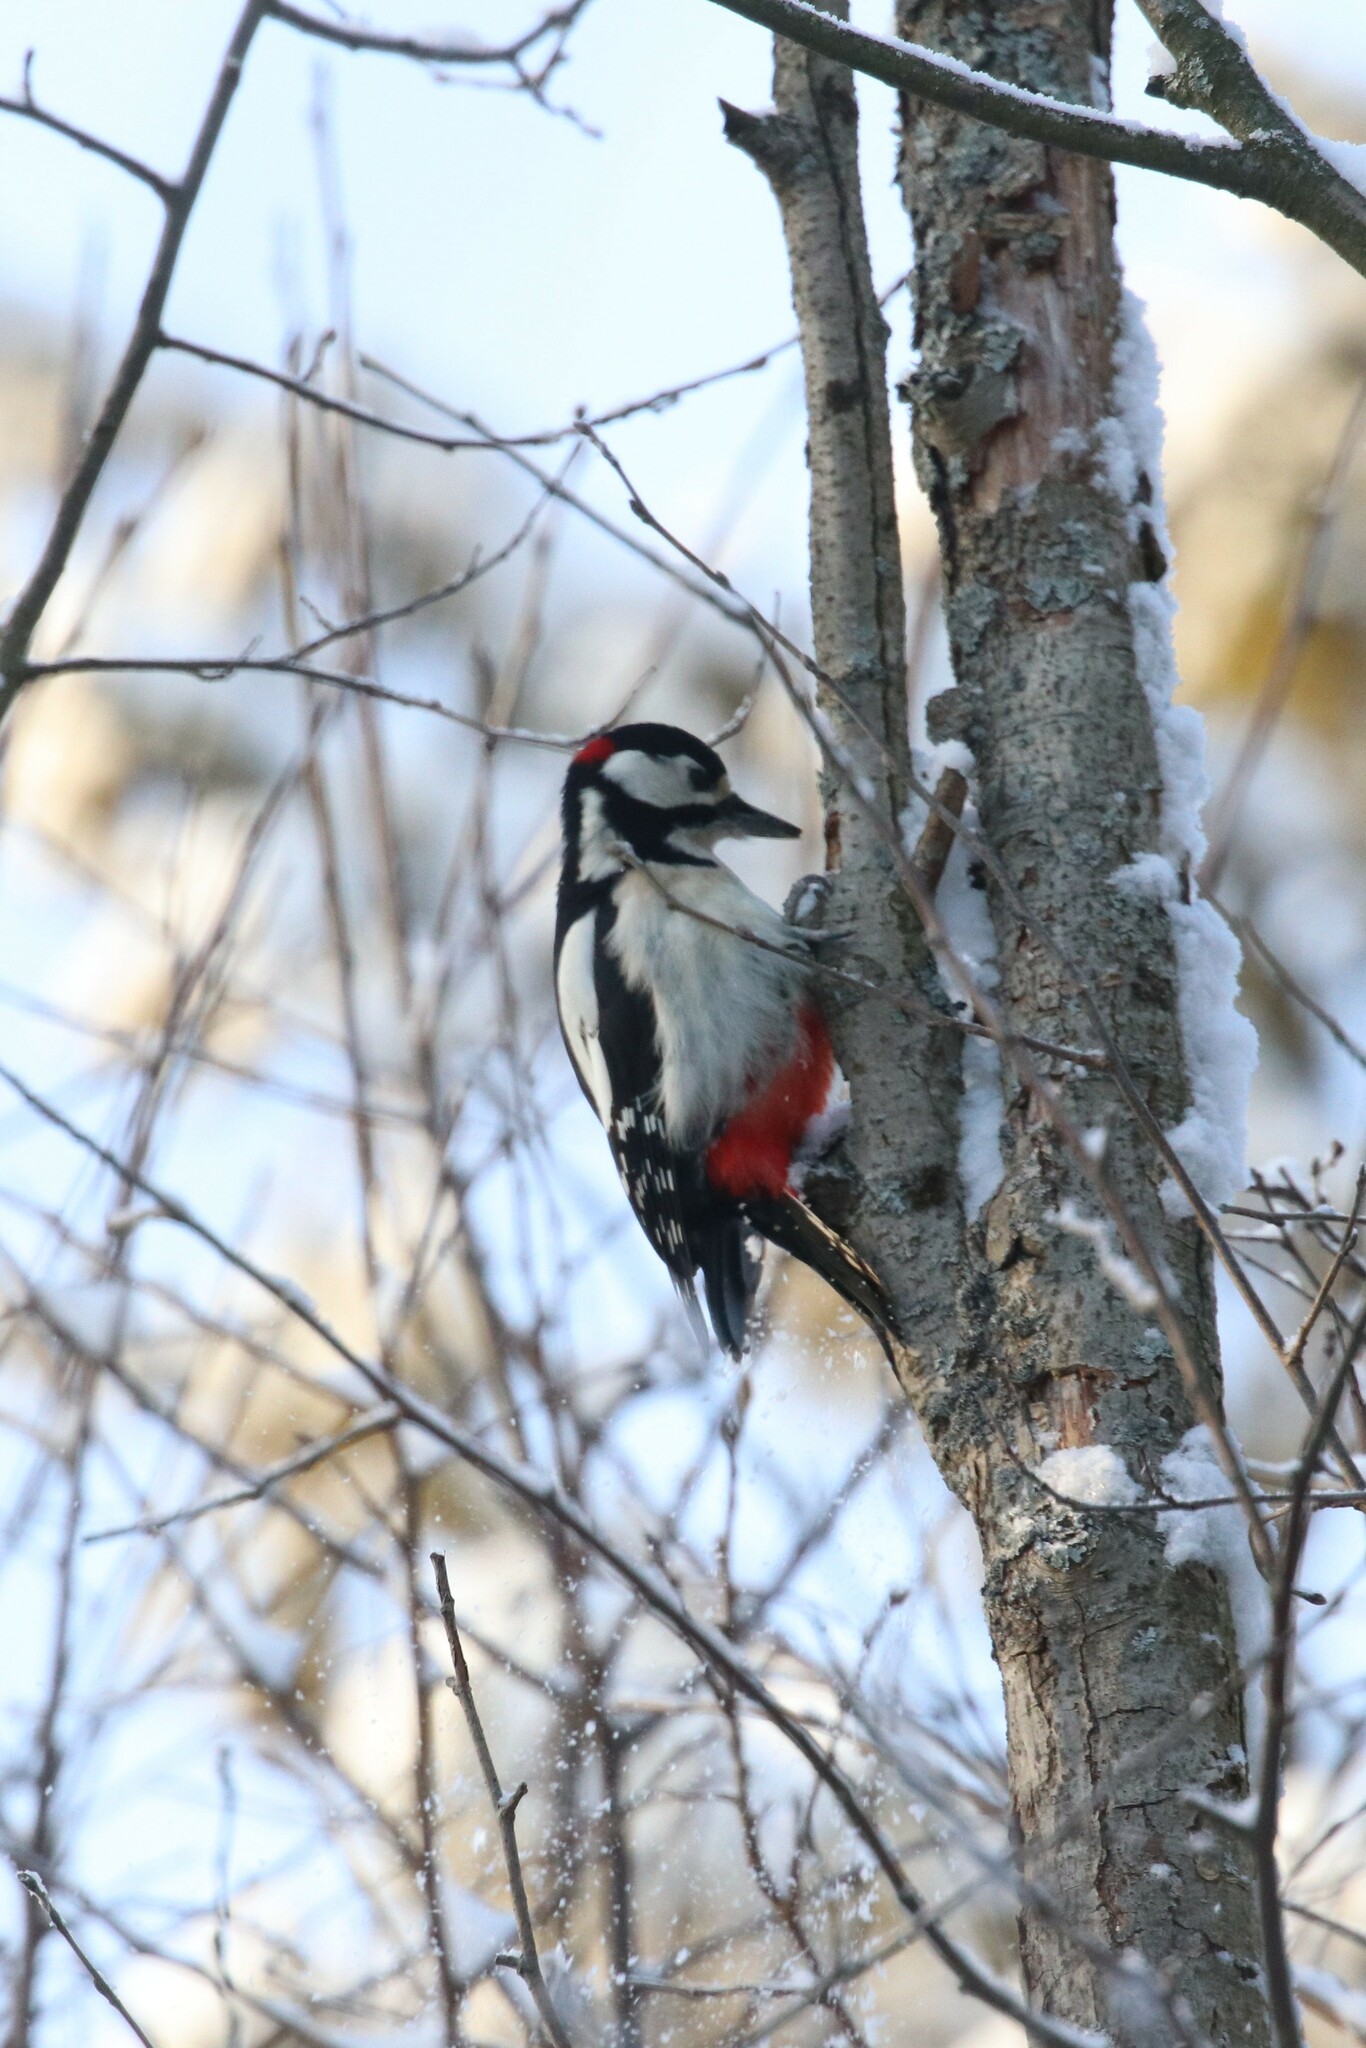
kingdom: Animalia
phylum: Chordata
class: Aves
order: Piciformes
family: Picidae
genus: Dendrocopos
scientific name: Dendrocopos major
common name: Great spotted woodpecker
